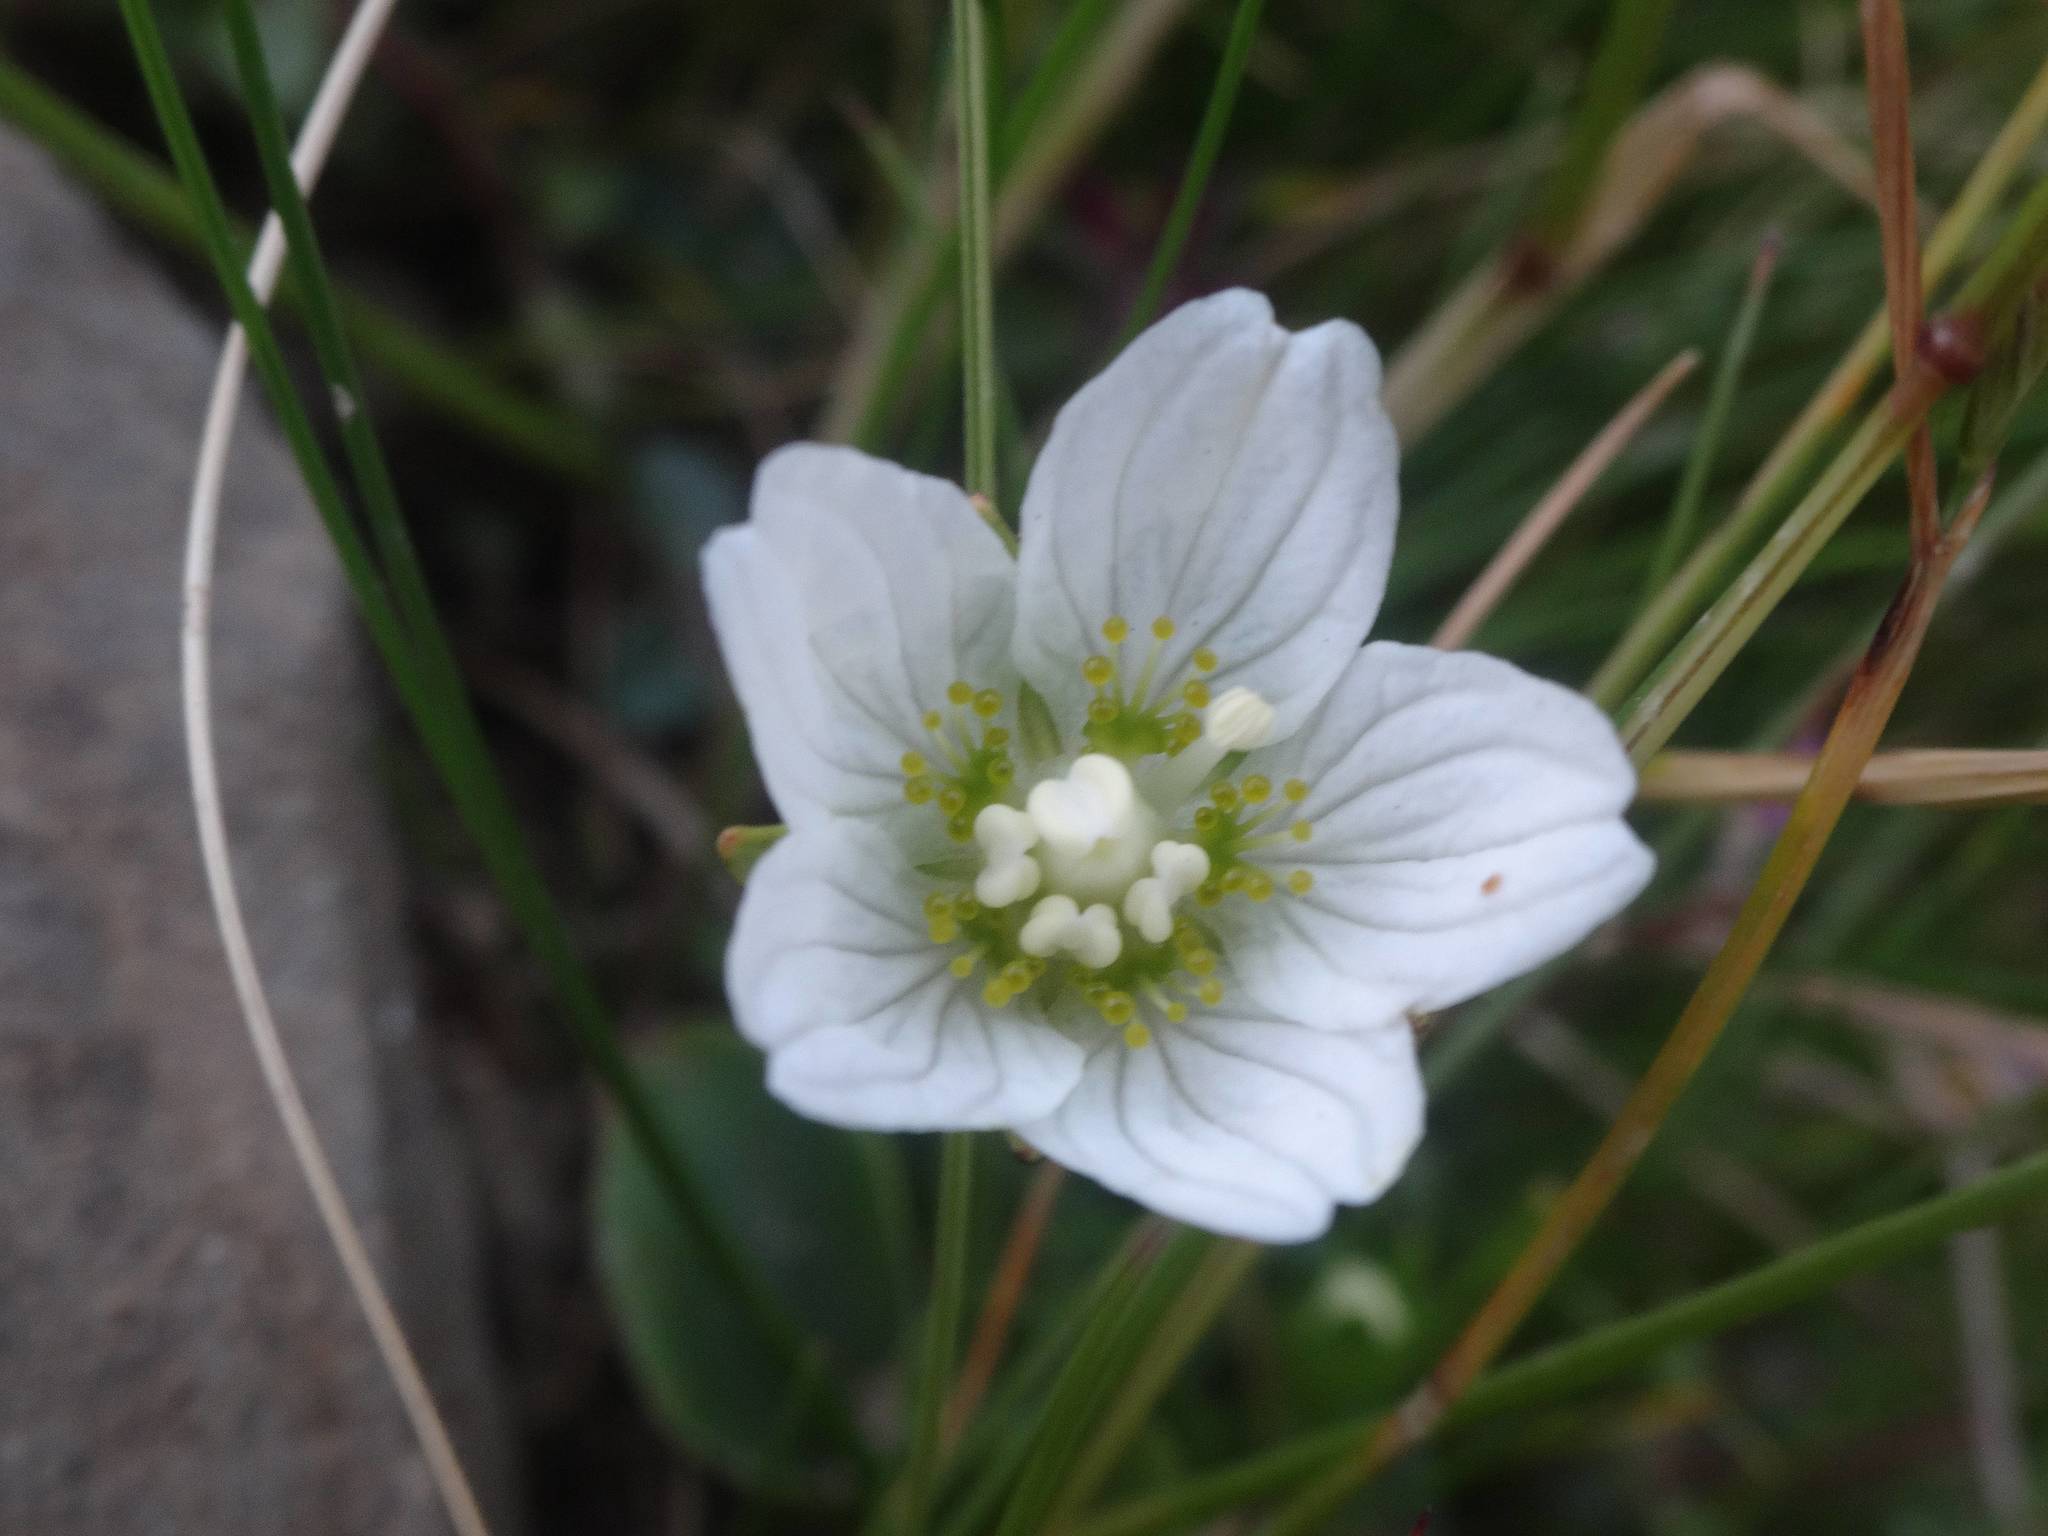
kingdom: Plantae
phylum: Tracheophyta
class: Magnoliopsida
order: Celastrales
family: Parnassiaceae
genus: Parnassia
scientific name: Parnassia palustris
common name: Grass-of-parnassus
